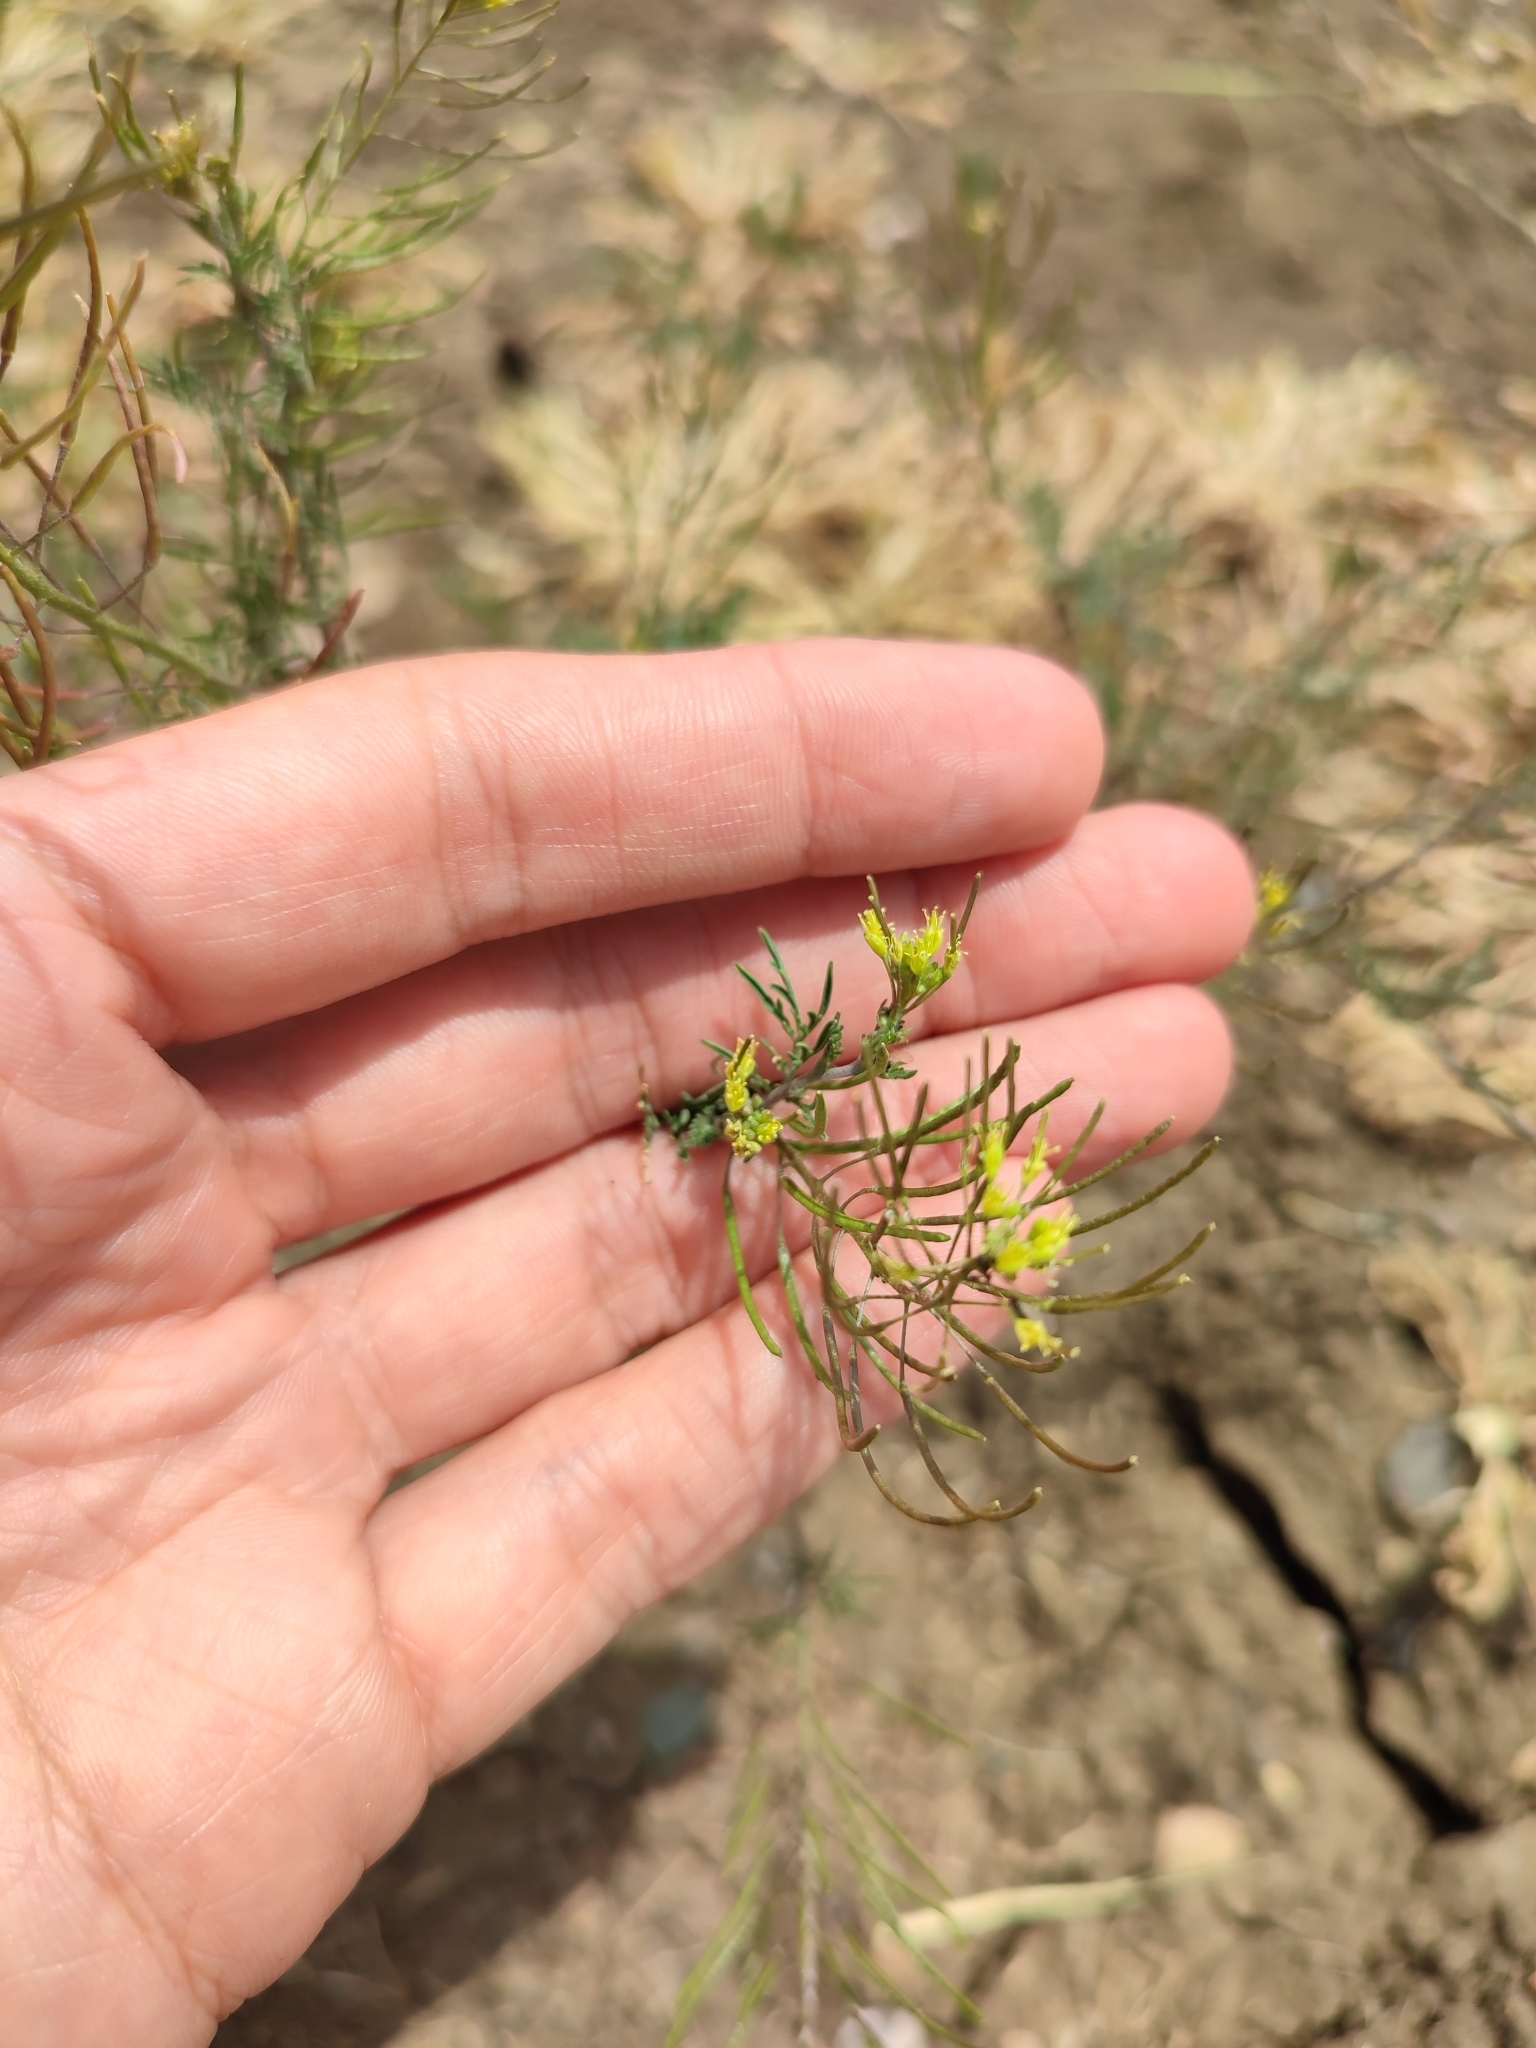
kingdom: Plantae
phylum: Tracheophyta
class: Magnoliopsida
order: Brassicales
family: Brassicaceae
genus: Descurainia
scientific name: Descurainia sophia
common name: Flixweed
